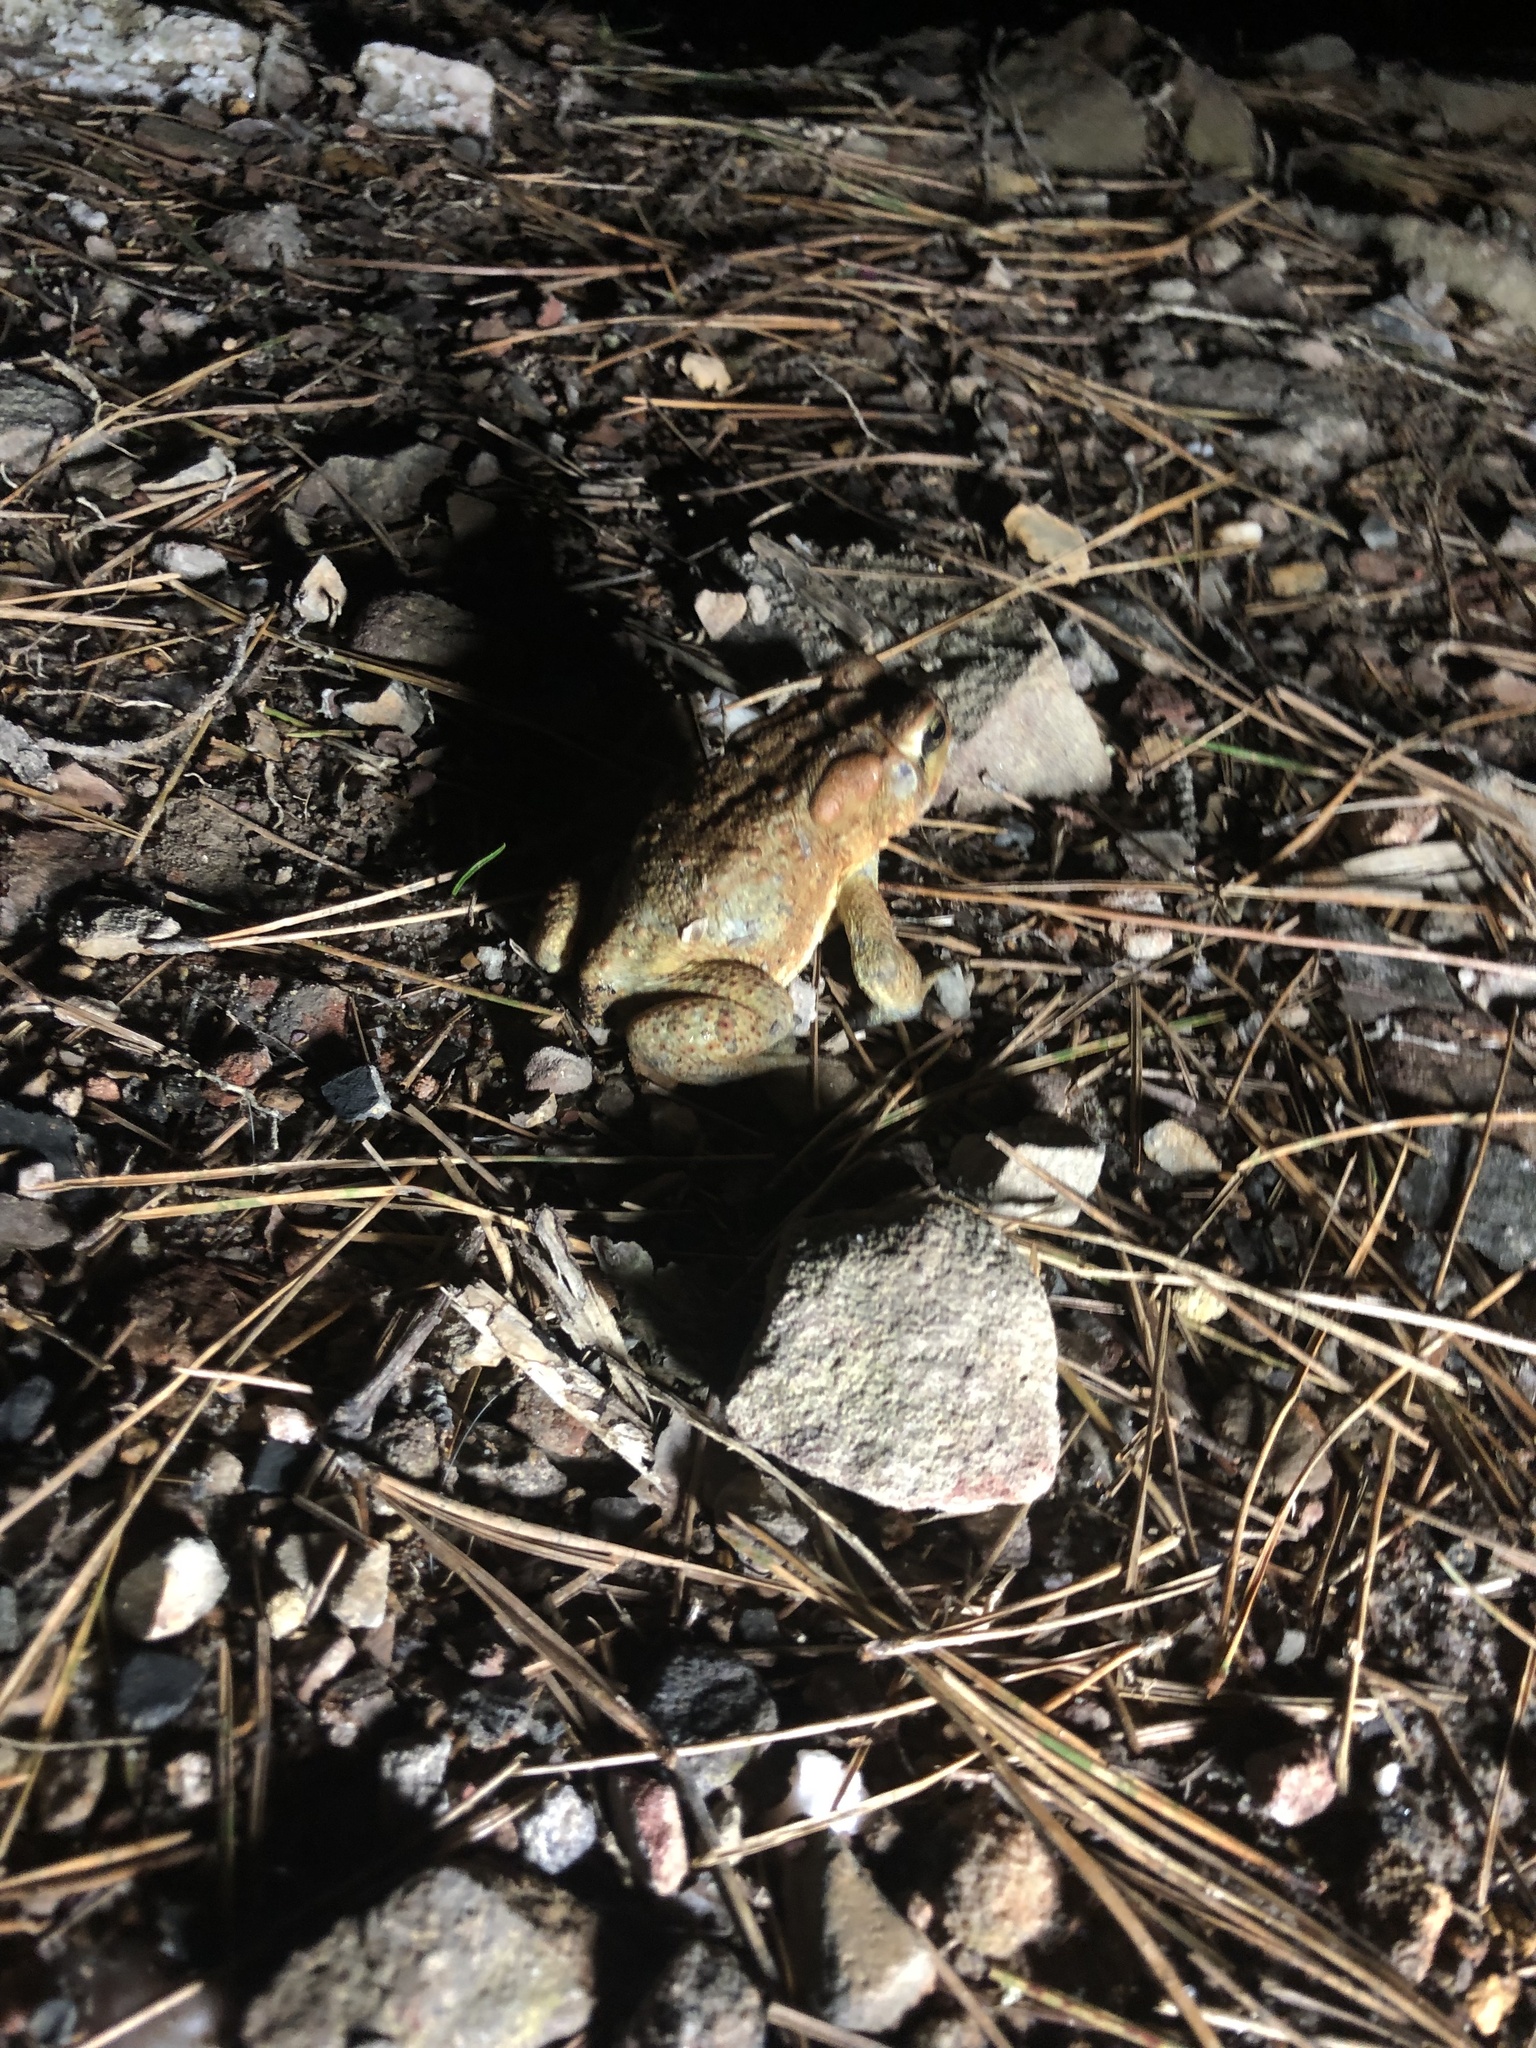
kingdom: Animalia
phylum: Chordata
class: Amphibia
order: Anura
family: Bufonidae
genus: Anaxyrus
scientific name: Anaxyrus americanus
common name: American toad
